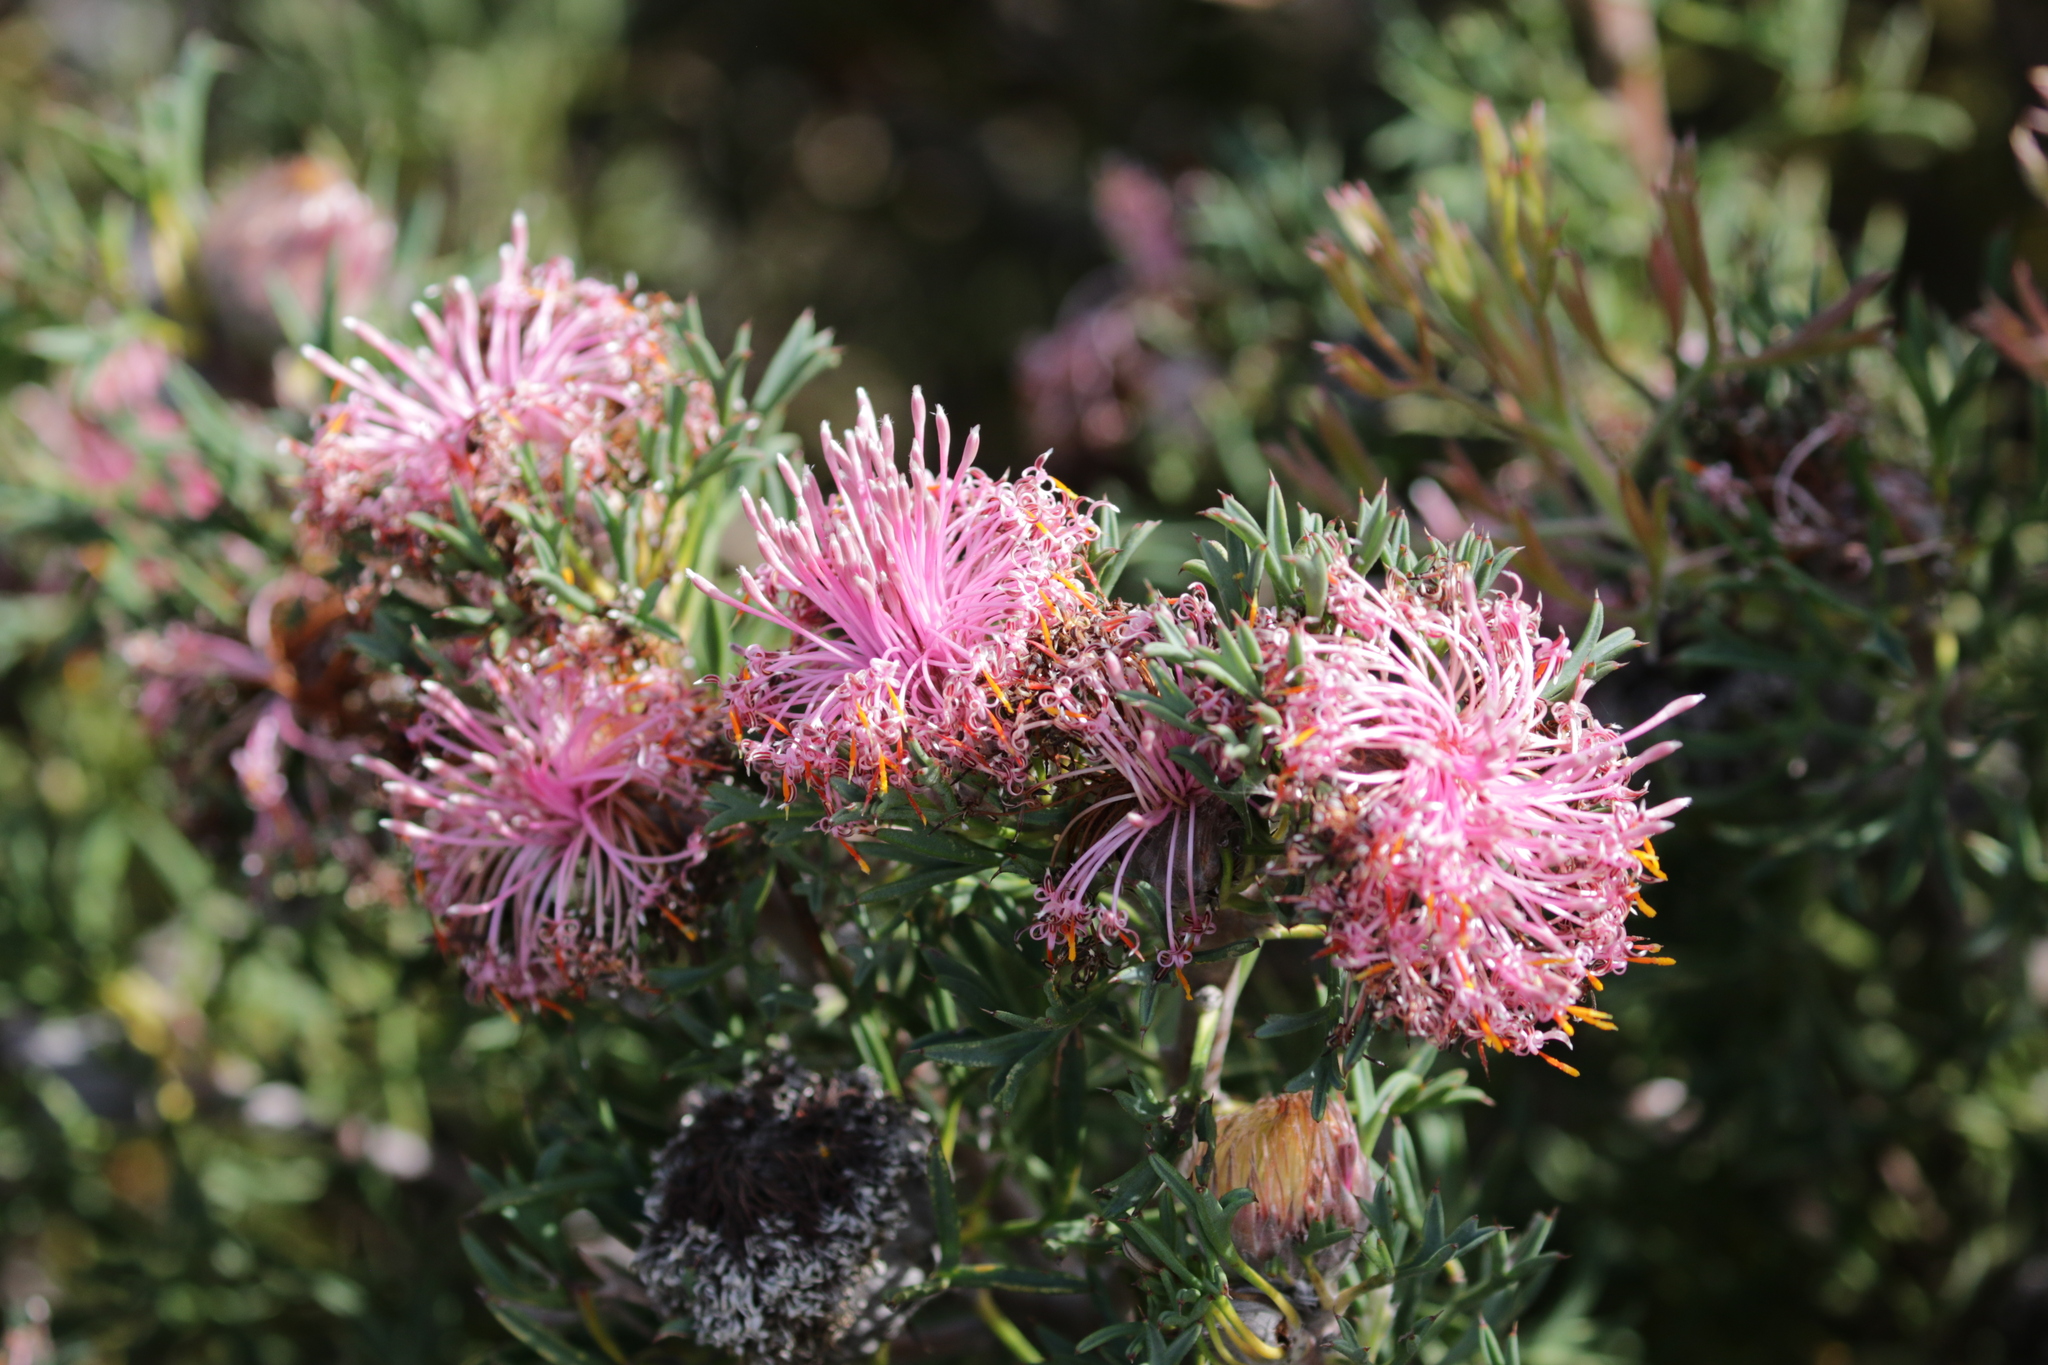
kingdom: Plantae
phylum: Tracheophyta
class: Magnoliopsida
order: Proteales
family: Proteaceae
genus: Isopogon
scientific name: Isopogon dubius
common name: Pincushion-coneflower
